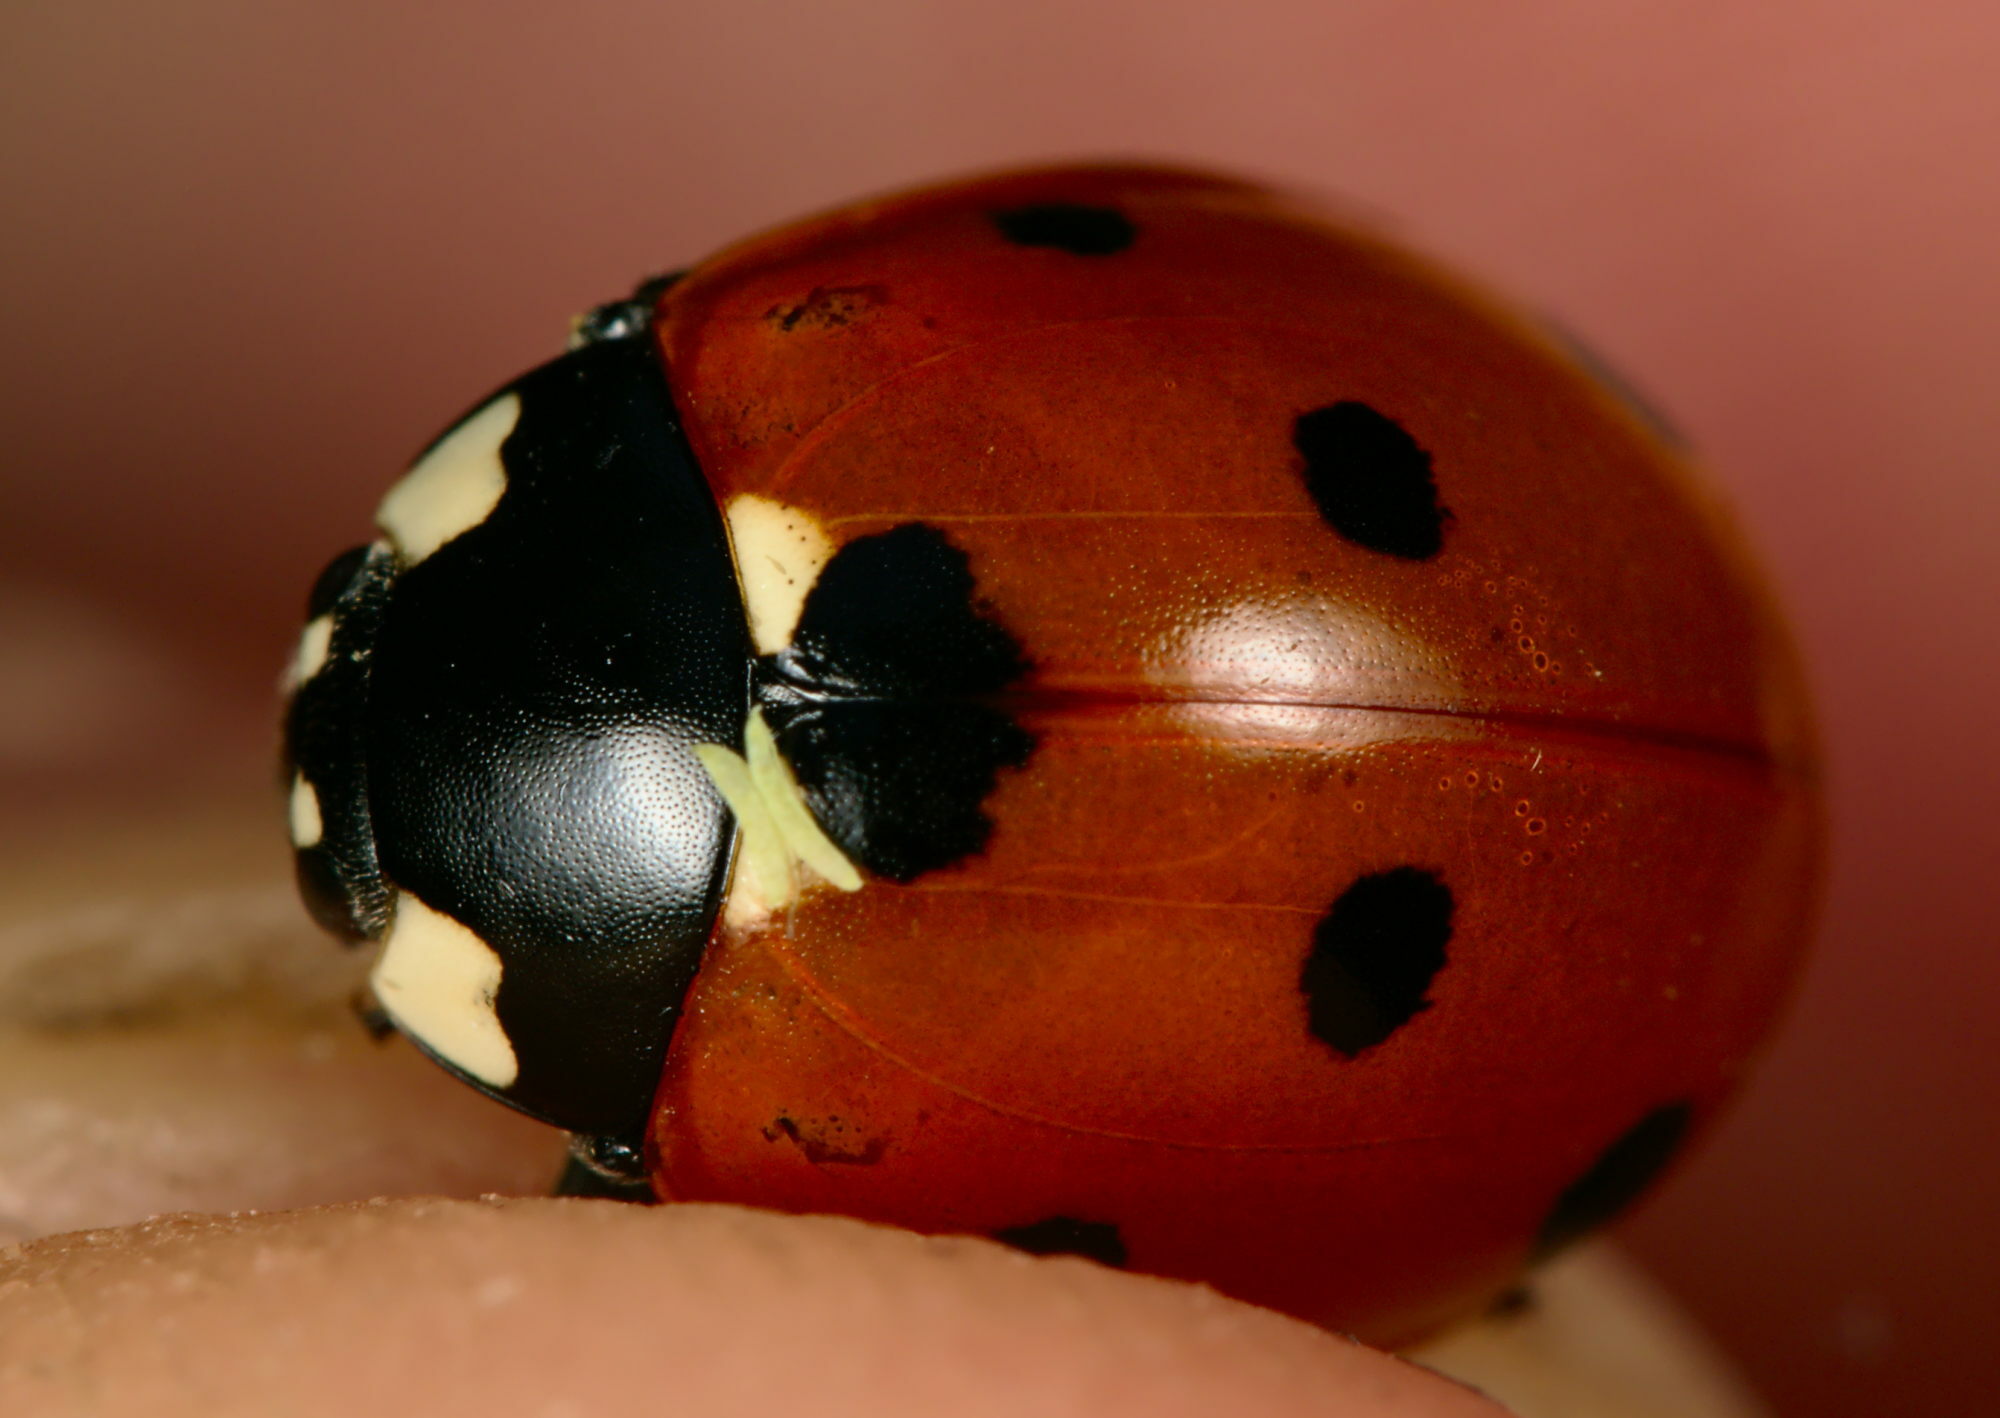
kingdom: Animalia
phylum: Arthropoda
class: Insecta
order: Coleoptera
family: Coccinellidae
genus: Coccinella
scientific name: Coccinella septempunctata
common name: Sevenspotted lady beetle
